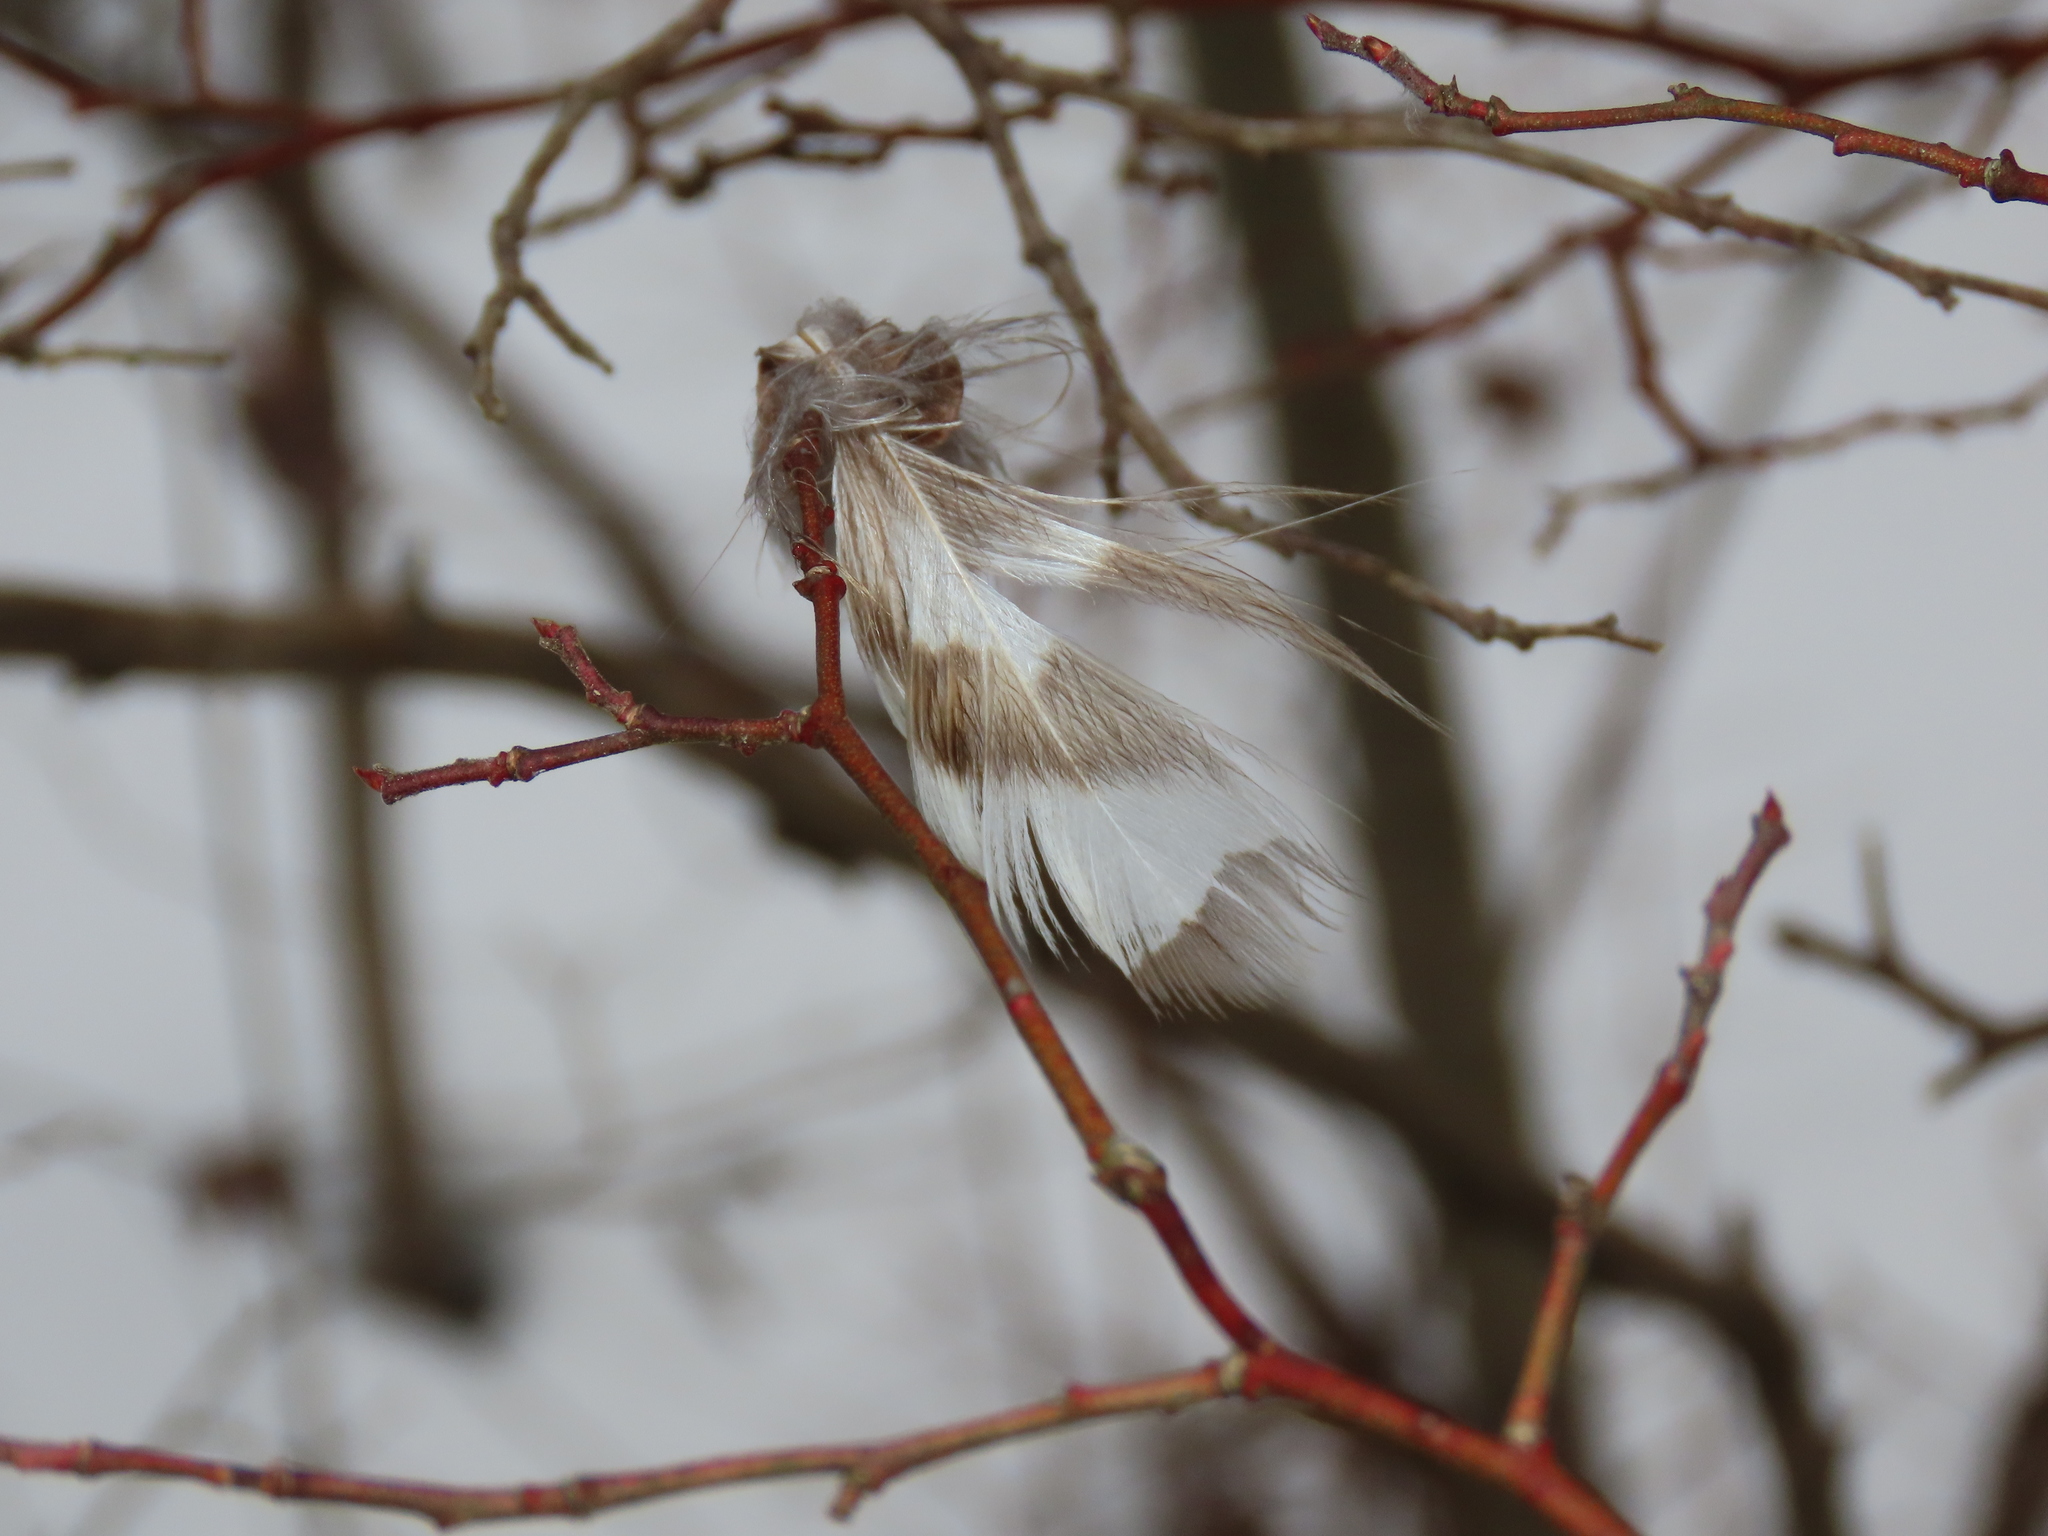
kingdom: Animalia
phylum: Chordata
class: Aves
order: Strigiformes
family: Strigidae
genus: Strix
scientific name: Strix varia
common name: Barred owl
